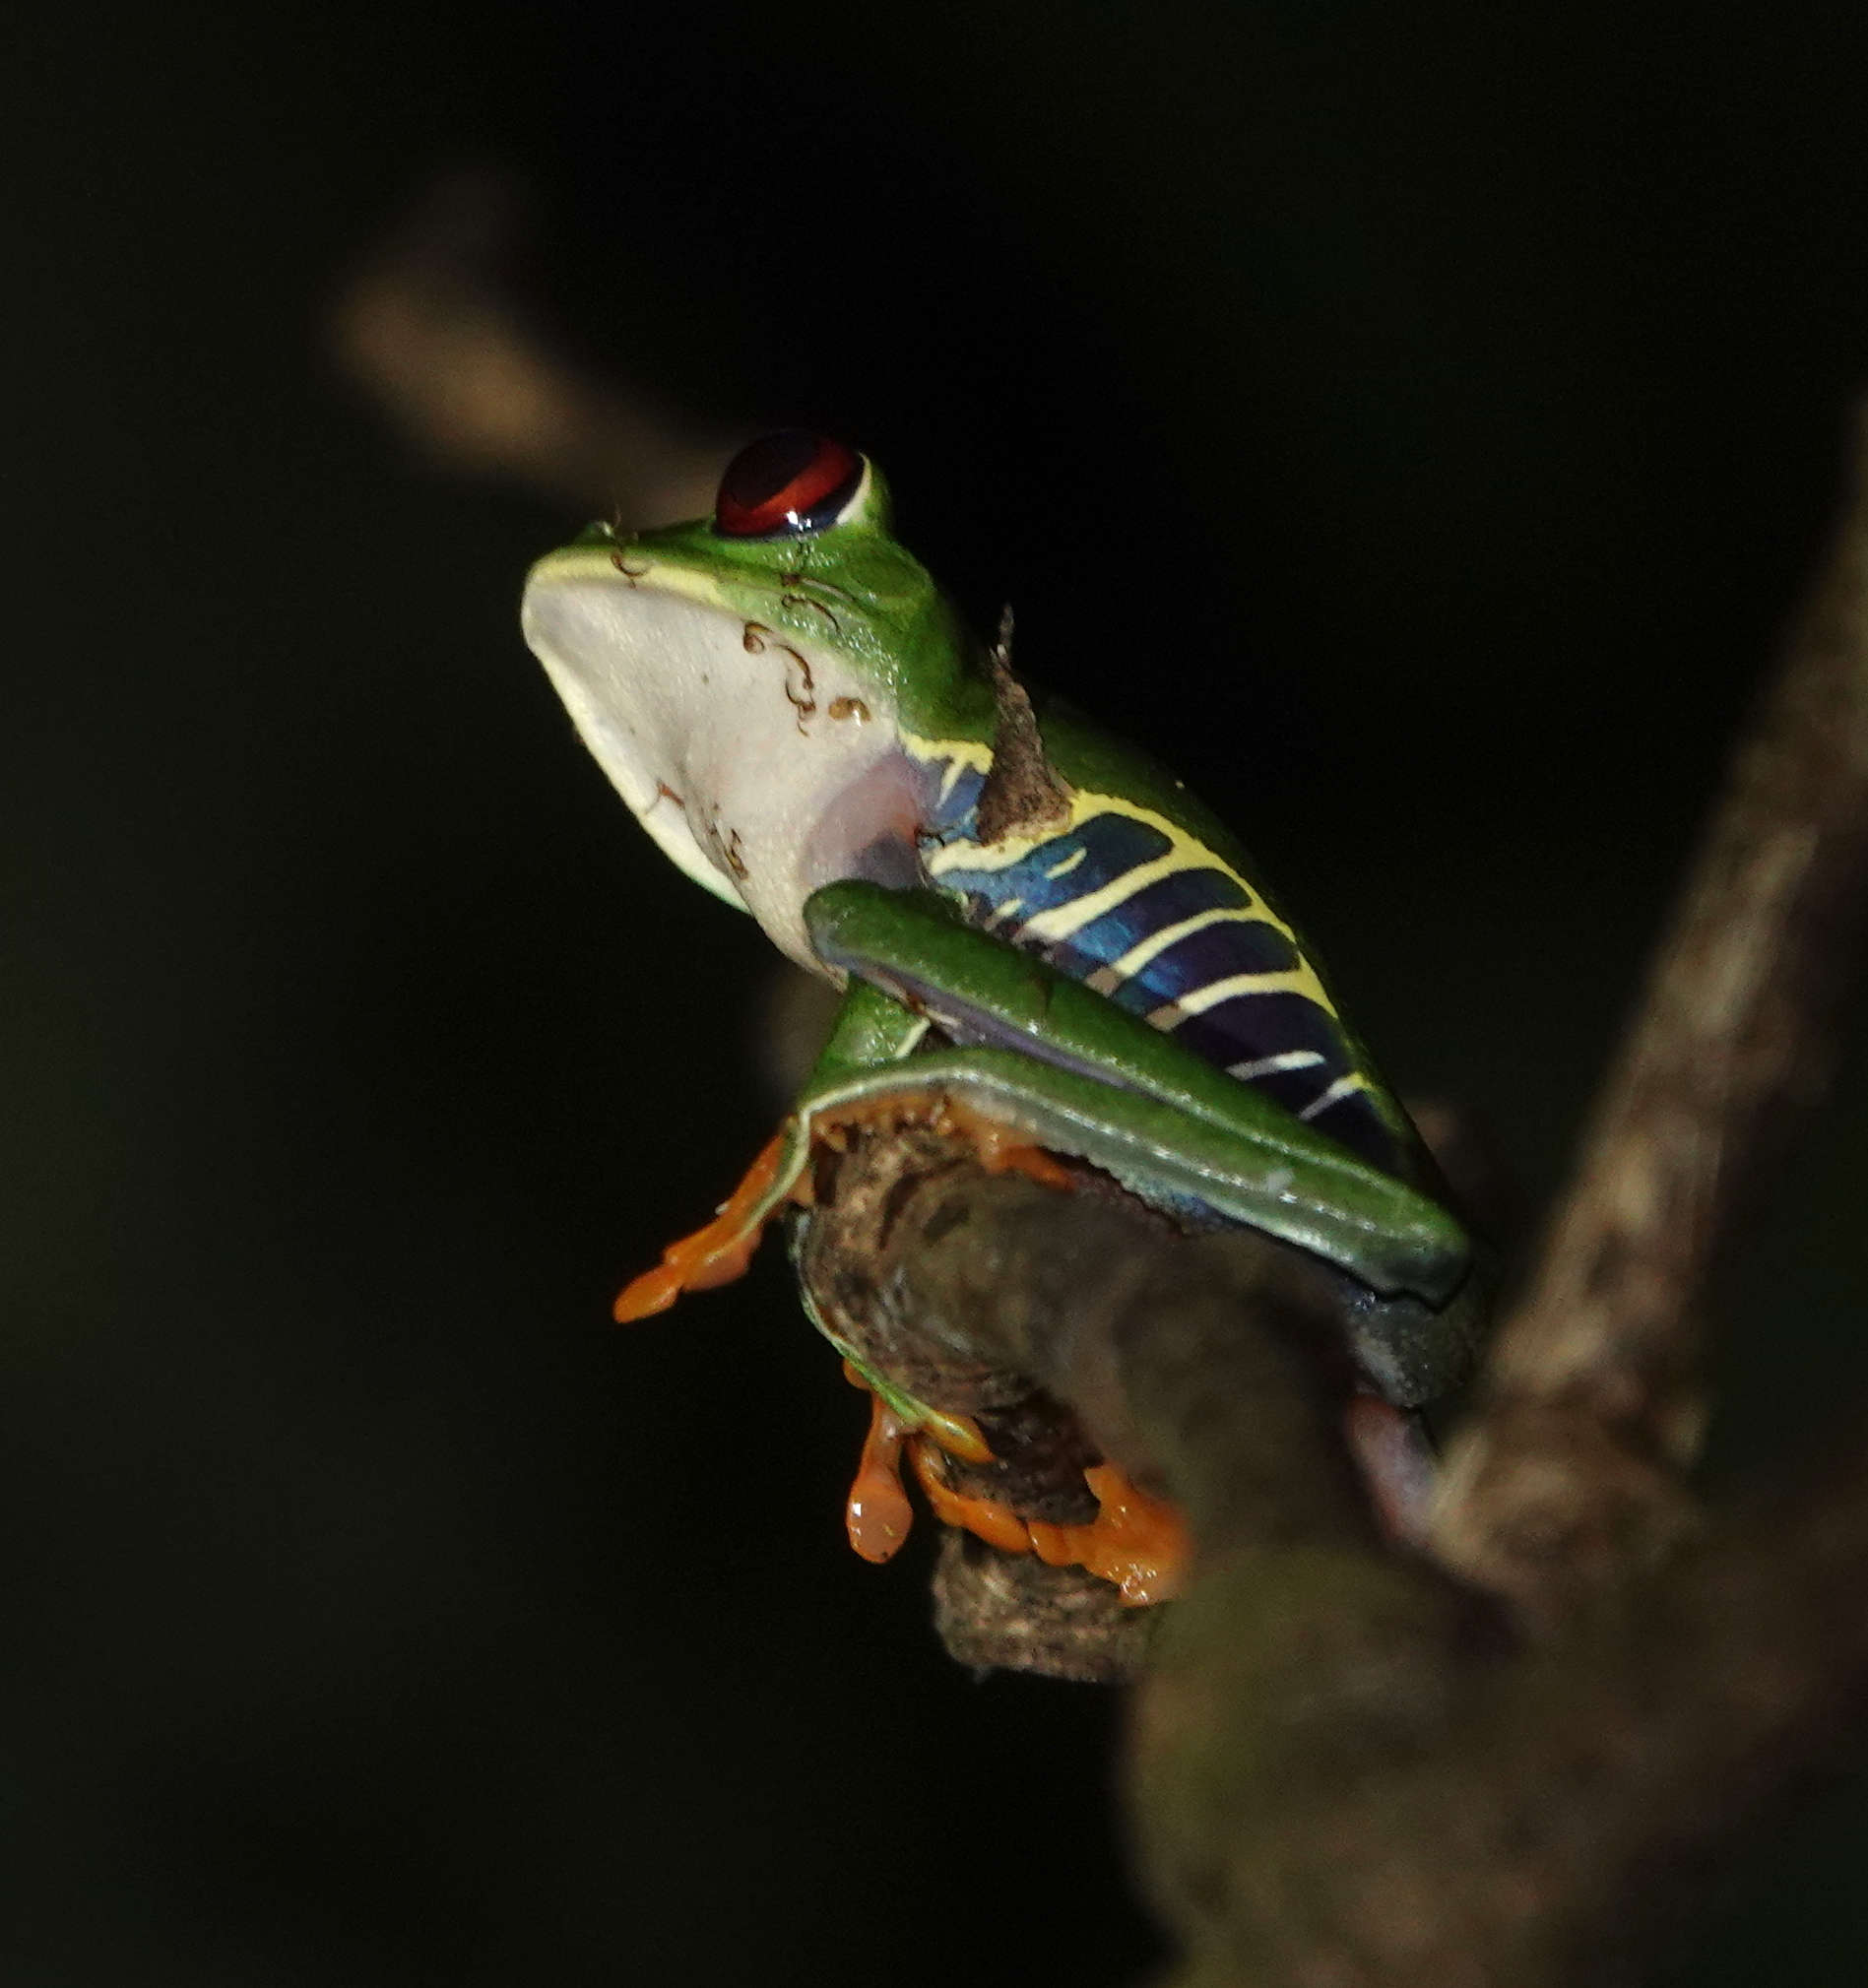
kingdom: Animalia
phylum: Chordata
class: Amphibia
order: Anura
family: Phyllomedusidae
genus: Agalychnis
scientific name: Agalychnis callidryas
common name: Red-eyed treefrog
